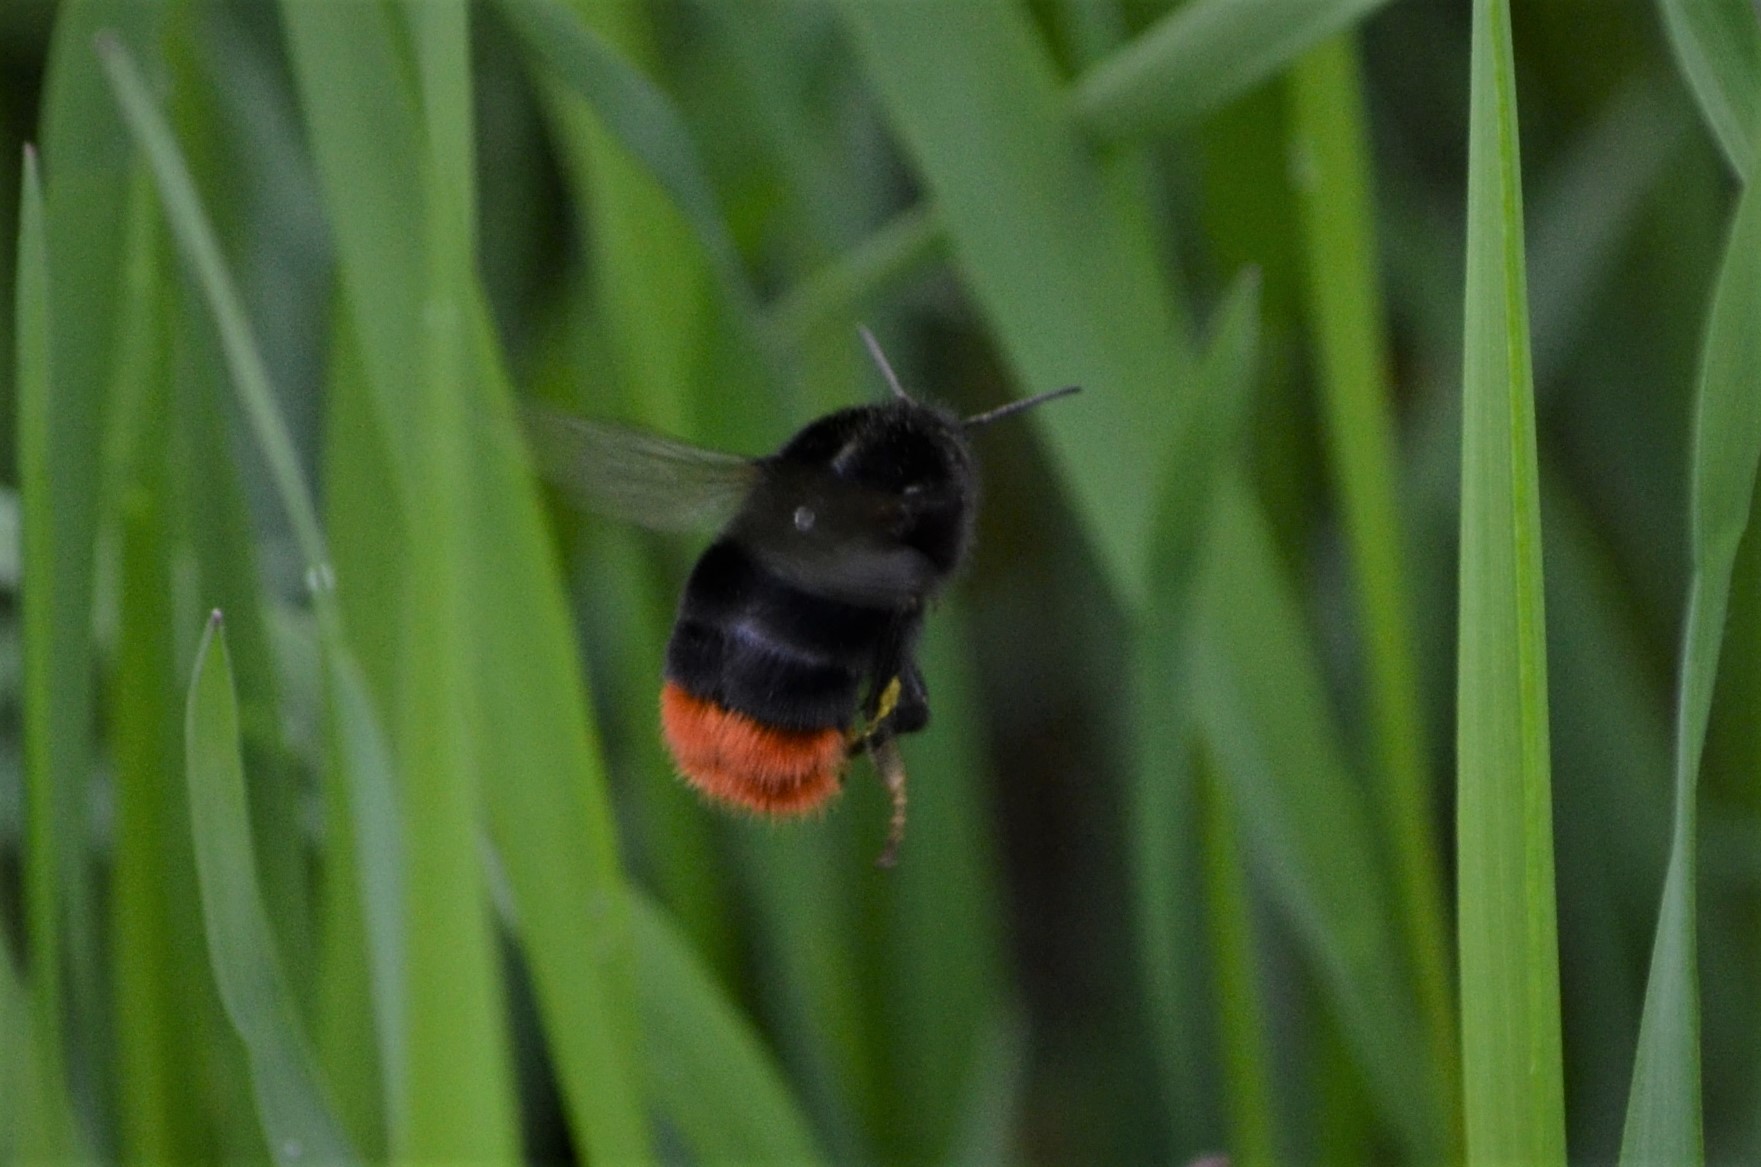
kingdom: Animalia
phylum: Arthropoda
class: Insecta
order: Hymenoptera
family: Apidae
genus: Bombus
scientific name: Bombus lapidarius
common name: Large red-tailed humble-bee
